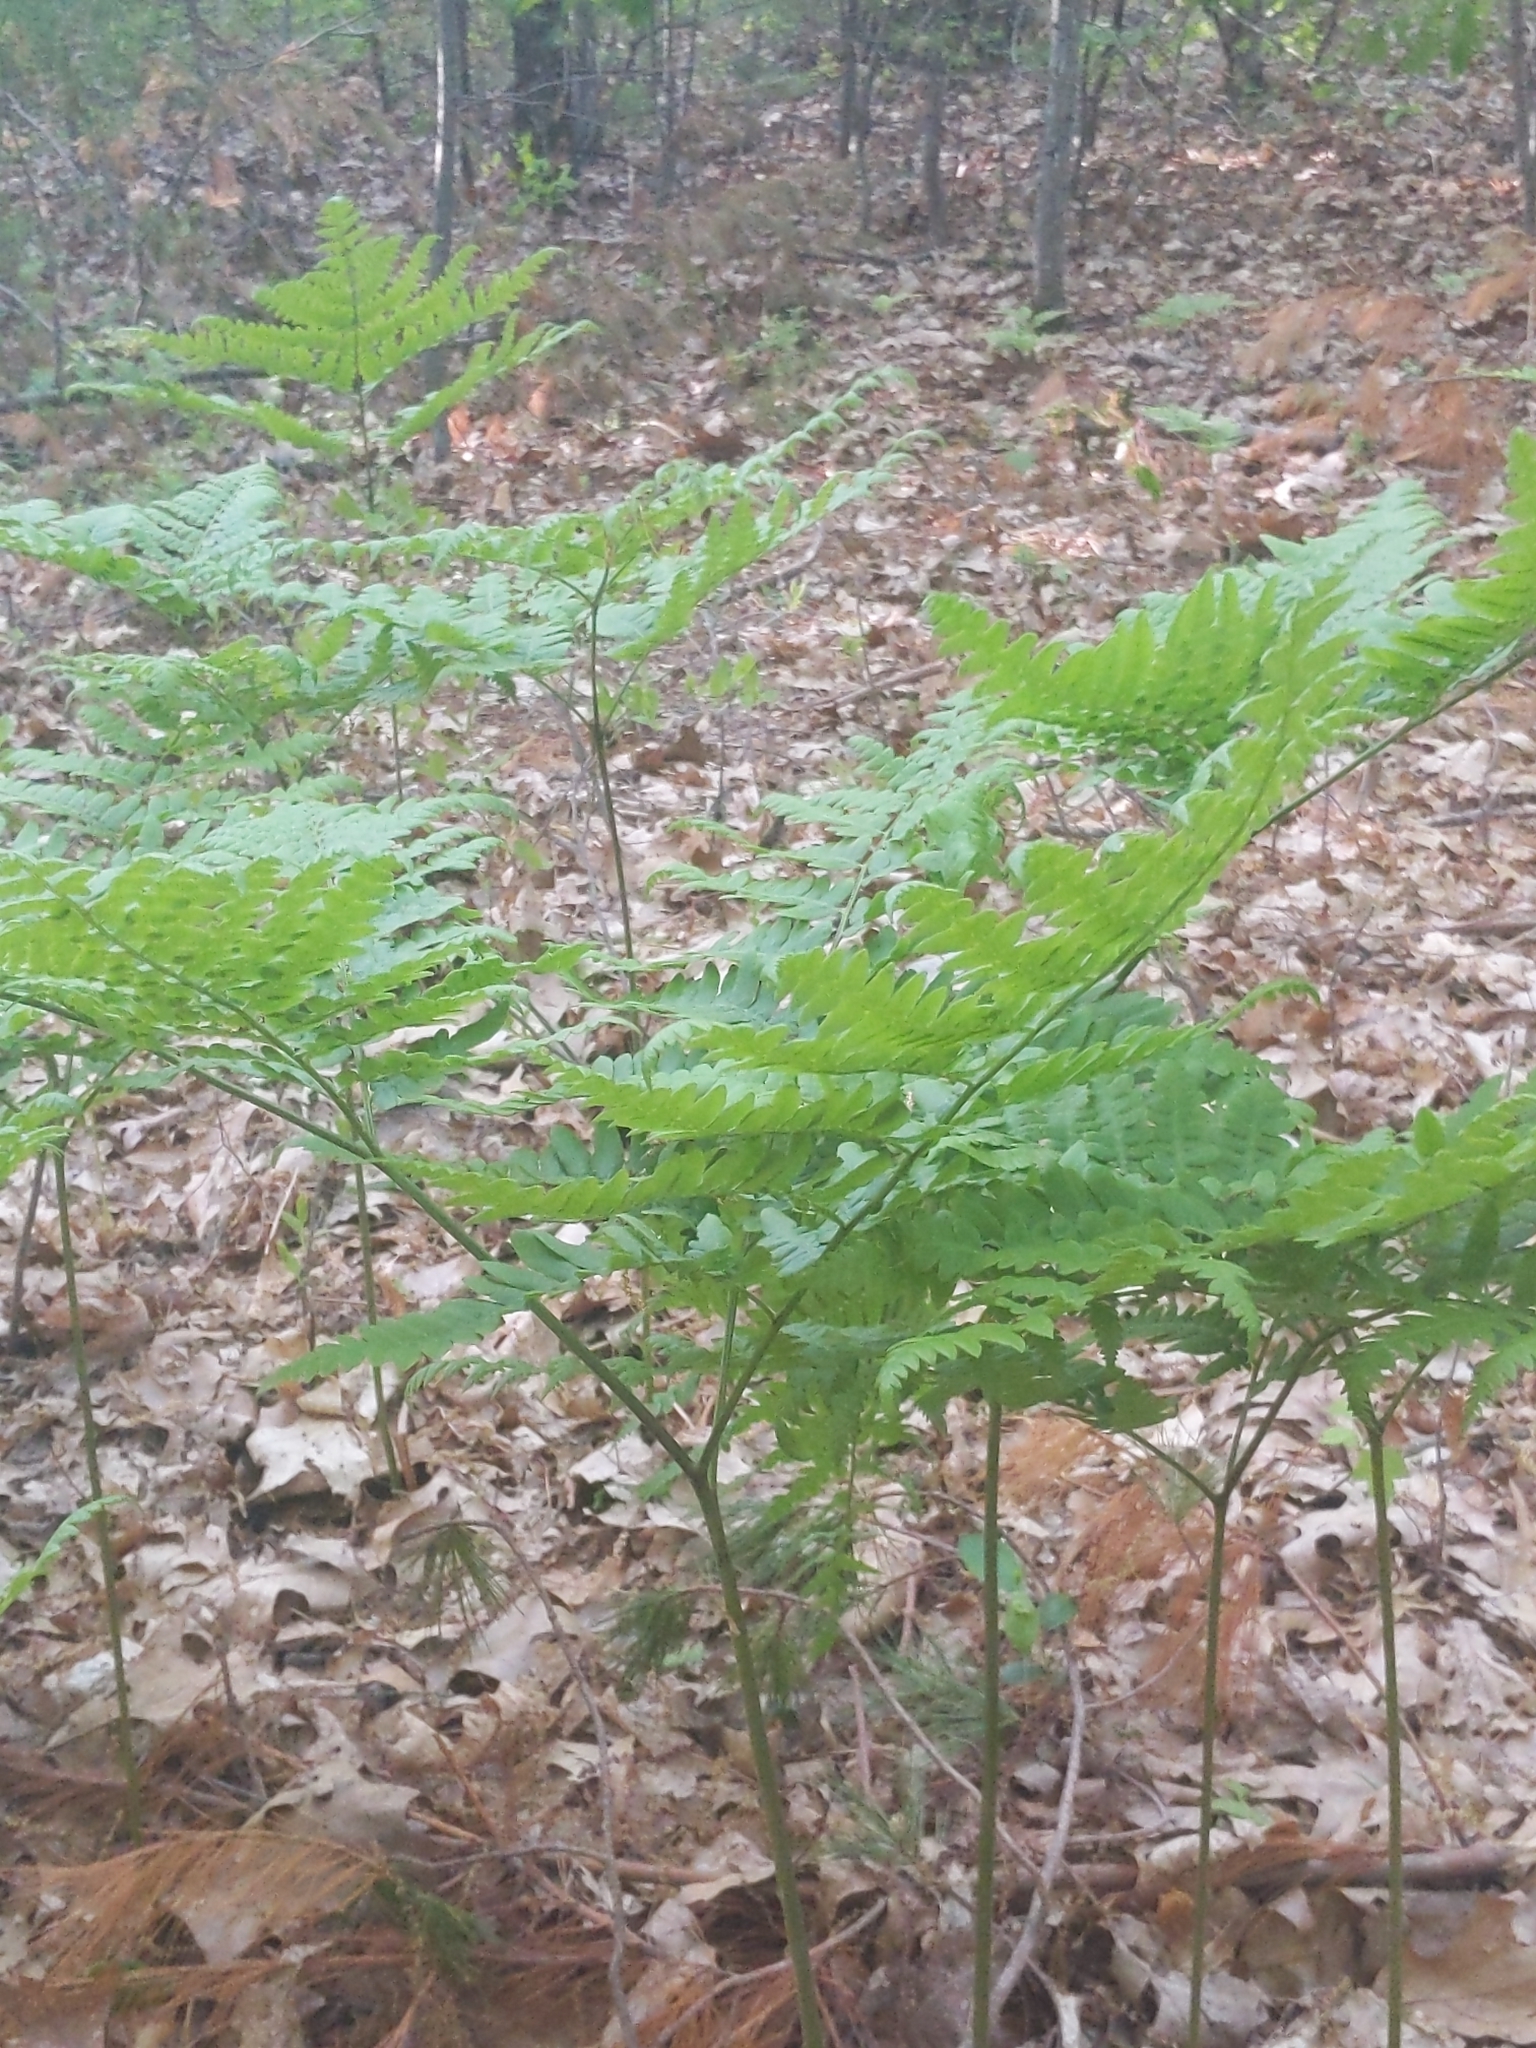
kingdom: Plantae
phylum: Tracheophyta
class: Polypodiopsida
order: Polypodiales
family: Dennstaedtiaceae
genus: Pteridium
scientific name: Pteridium aquilinum
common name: Bracken
